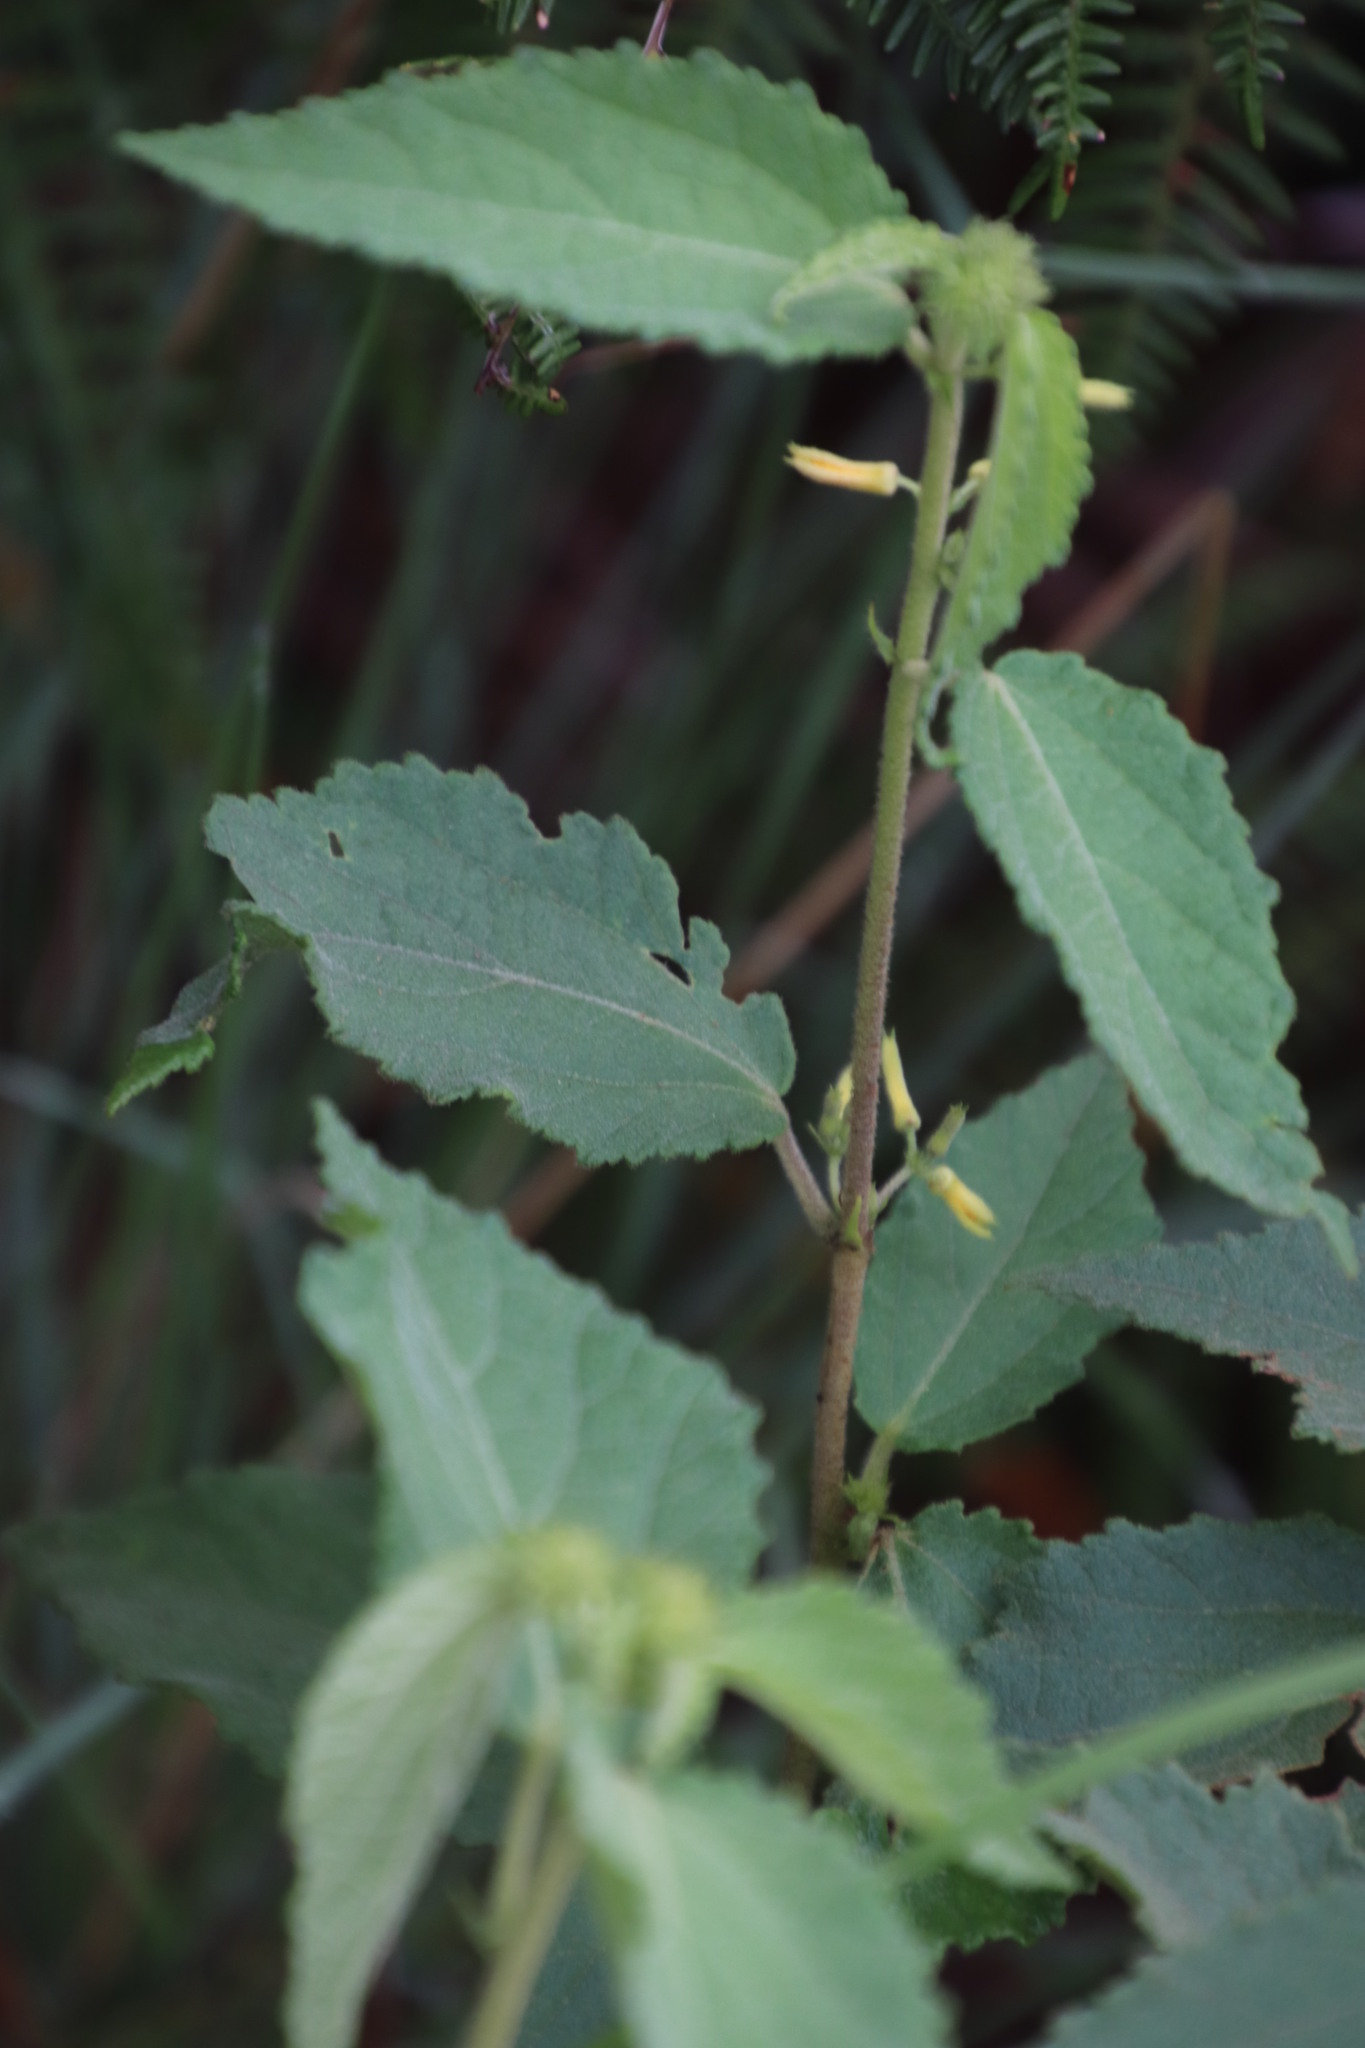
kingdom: Plantae
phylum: Tracheophyta
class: Magnoliopsida
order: Malvales
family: Malvaceae
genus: Triumfetta
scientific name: Triumfetta pilosa
